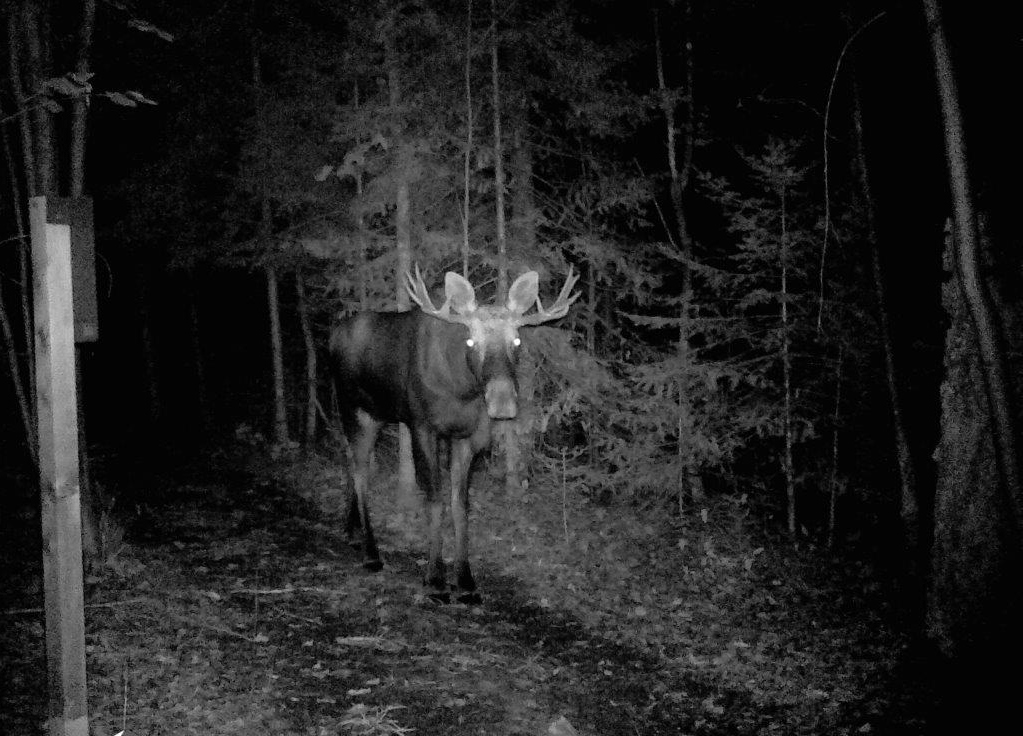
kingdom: Animalia
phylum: Chordata
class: Mammalia
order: Artiodactyla
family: Cervidae
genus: Alces
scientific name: Alces alces
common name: Moose
